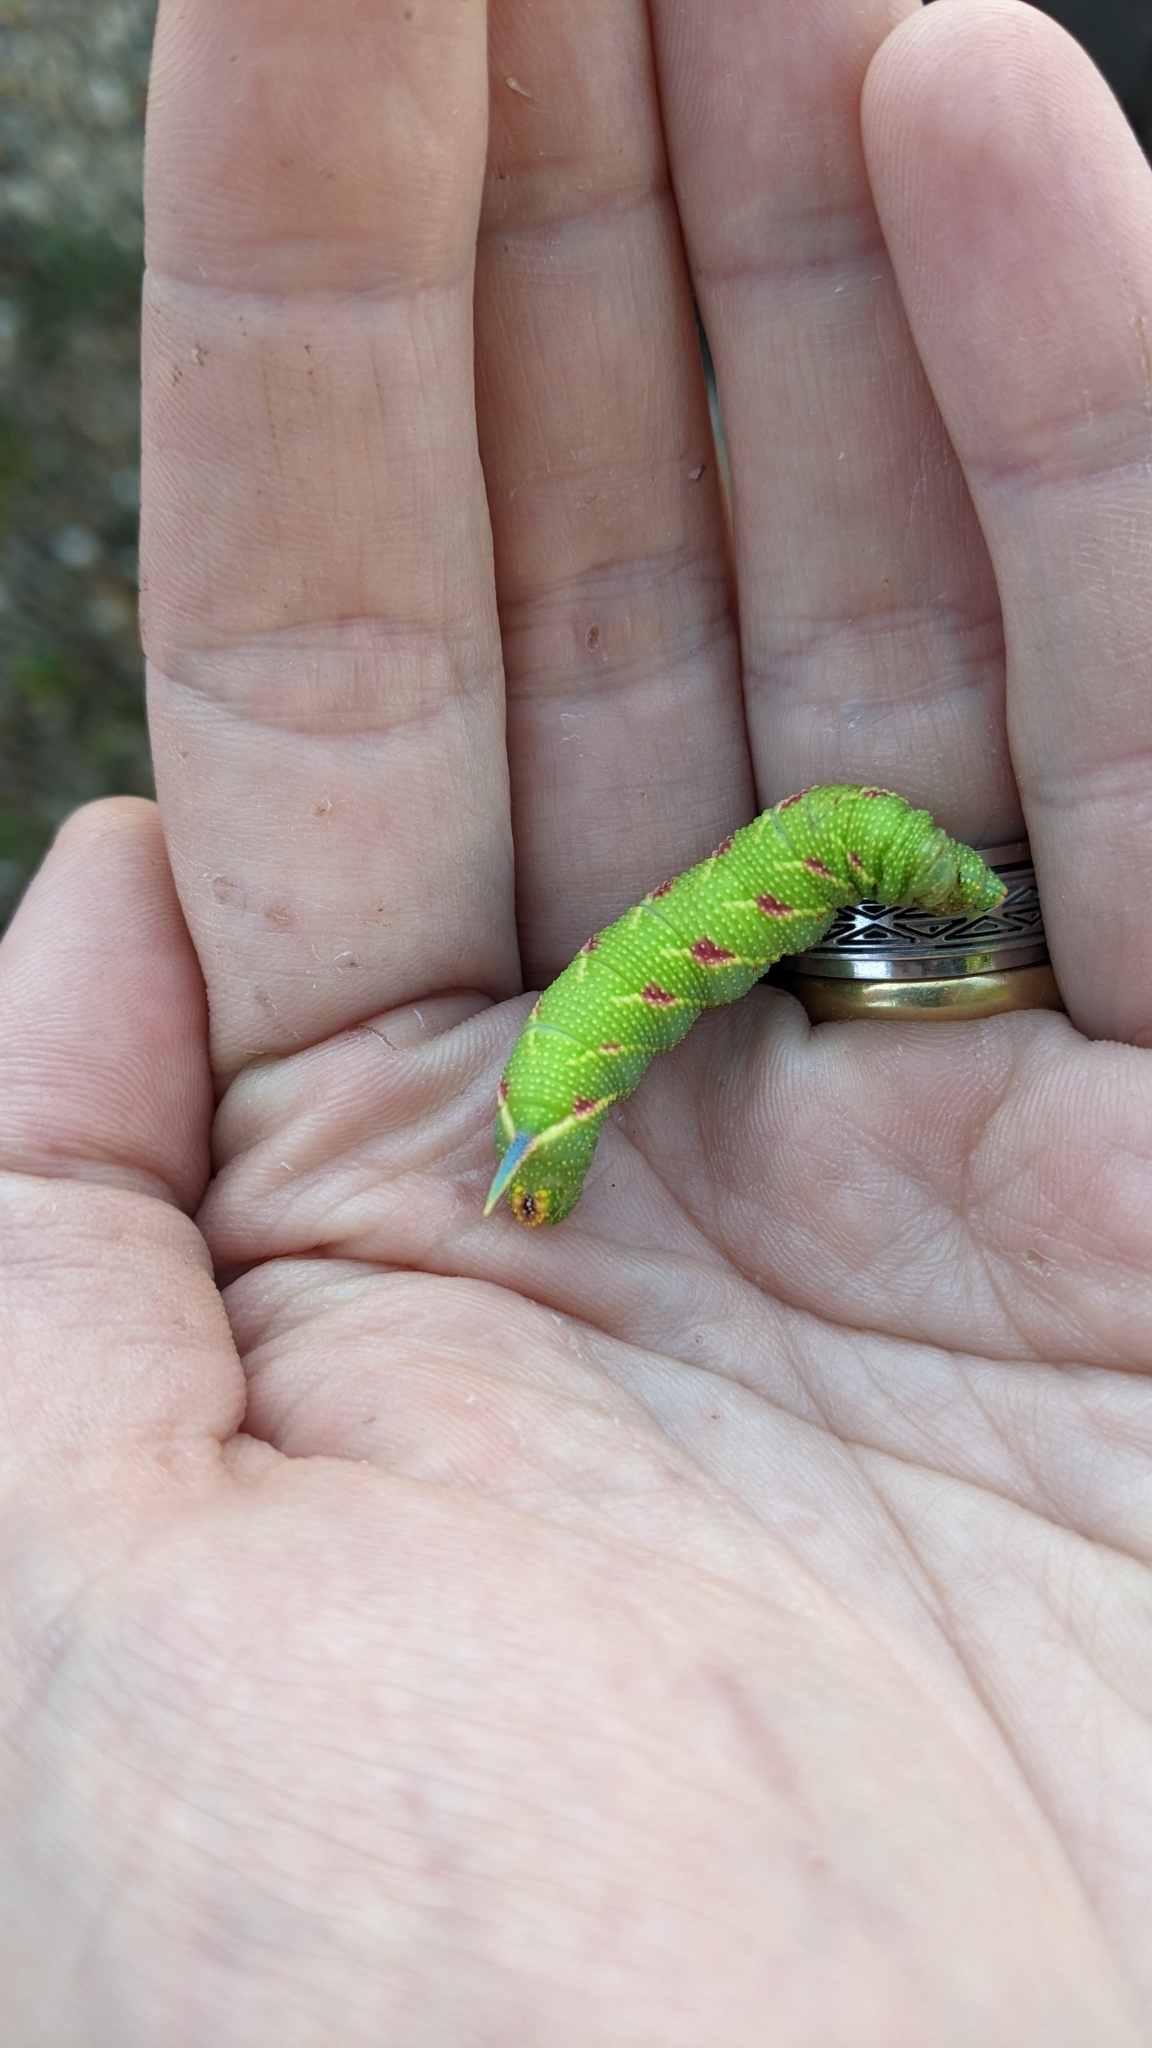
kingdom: Animalia
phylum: Arthropoda
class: Insecta
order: Lepidoptera
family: Sphingidae
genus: Mimas
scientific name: Mimas tiliae
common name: Lime hawk-moth
